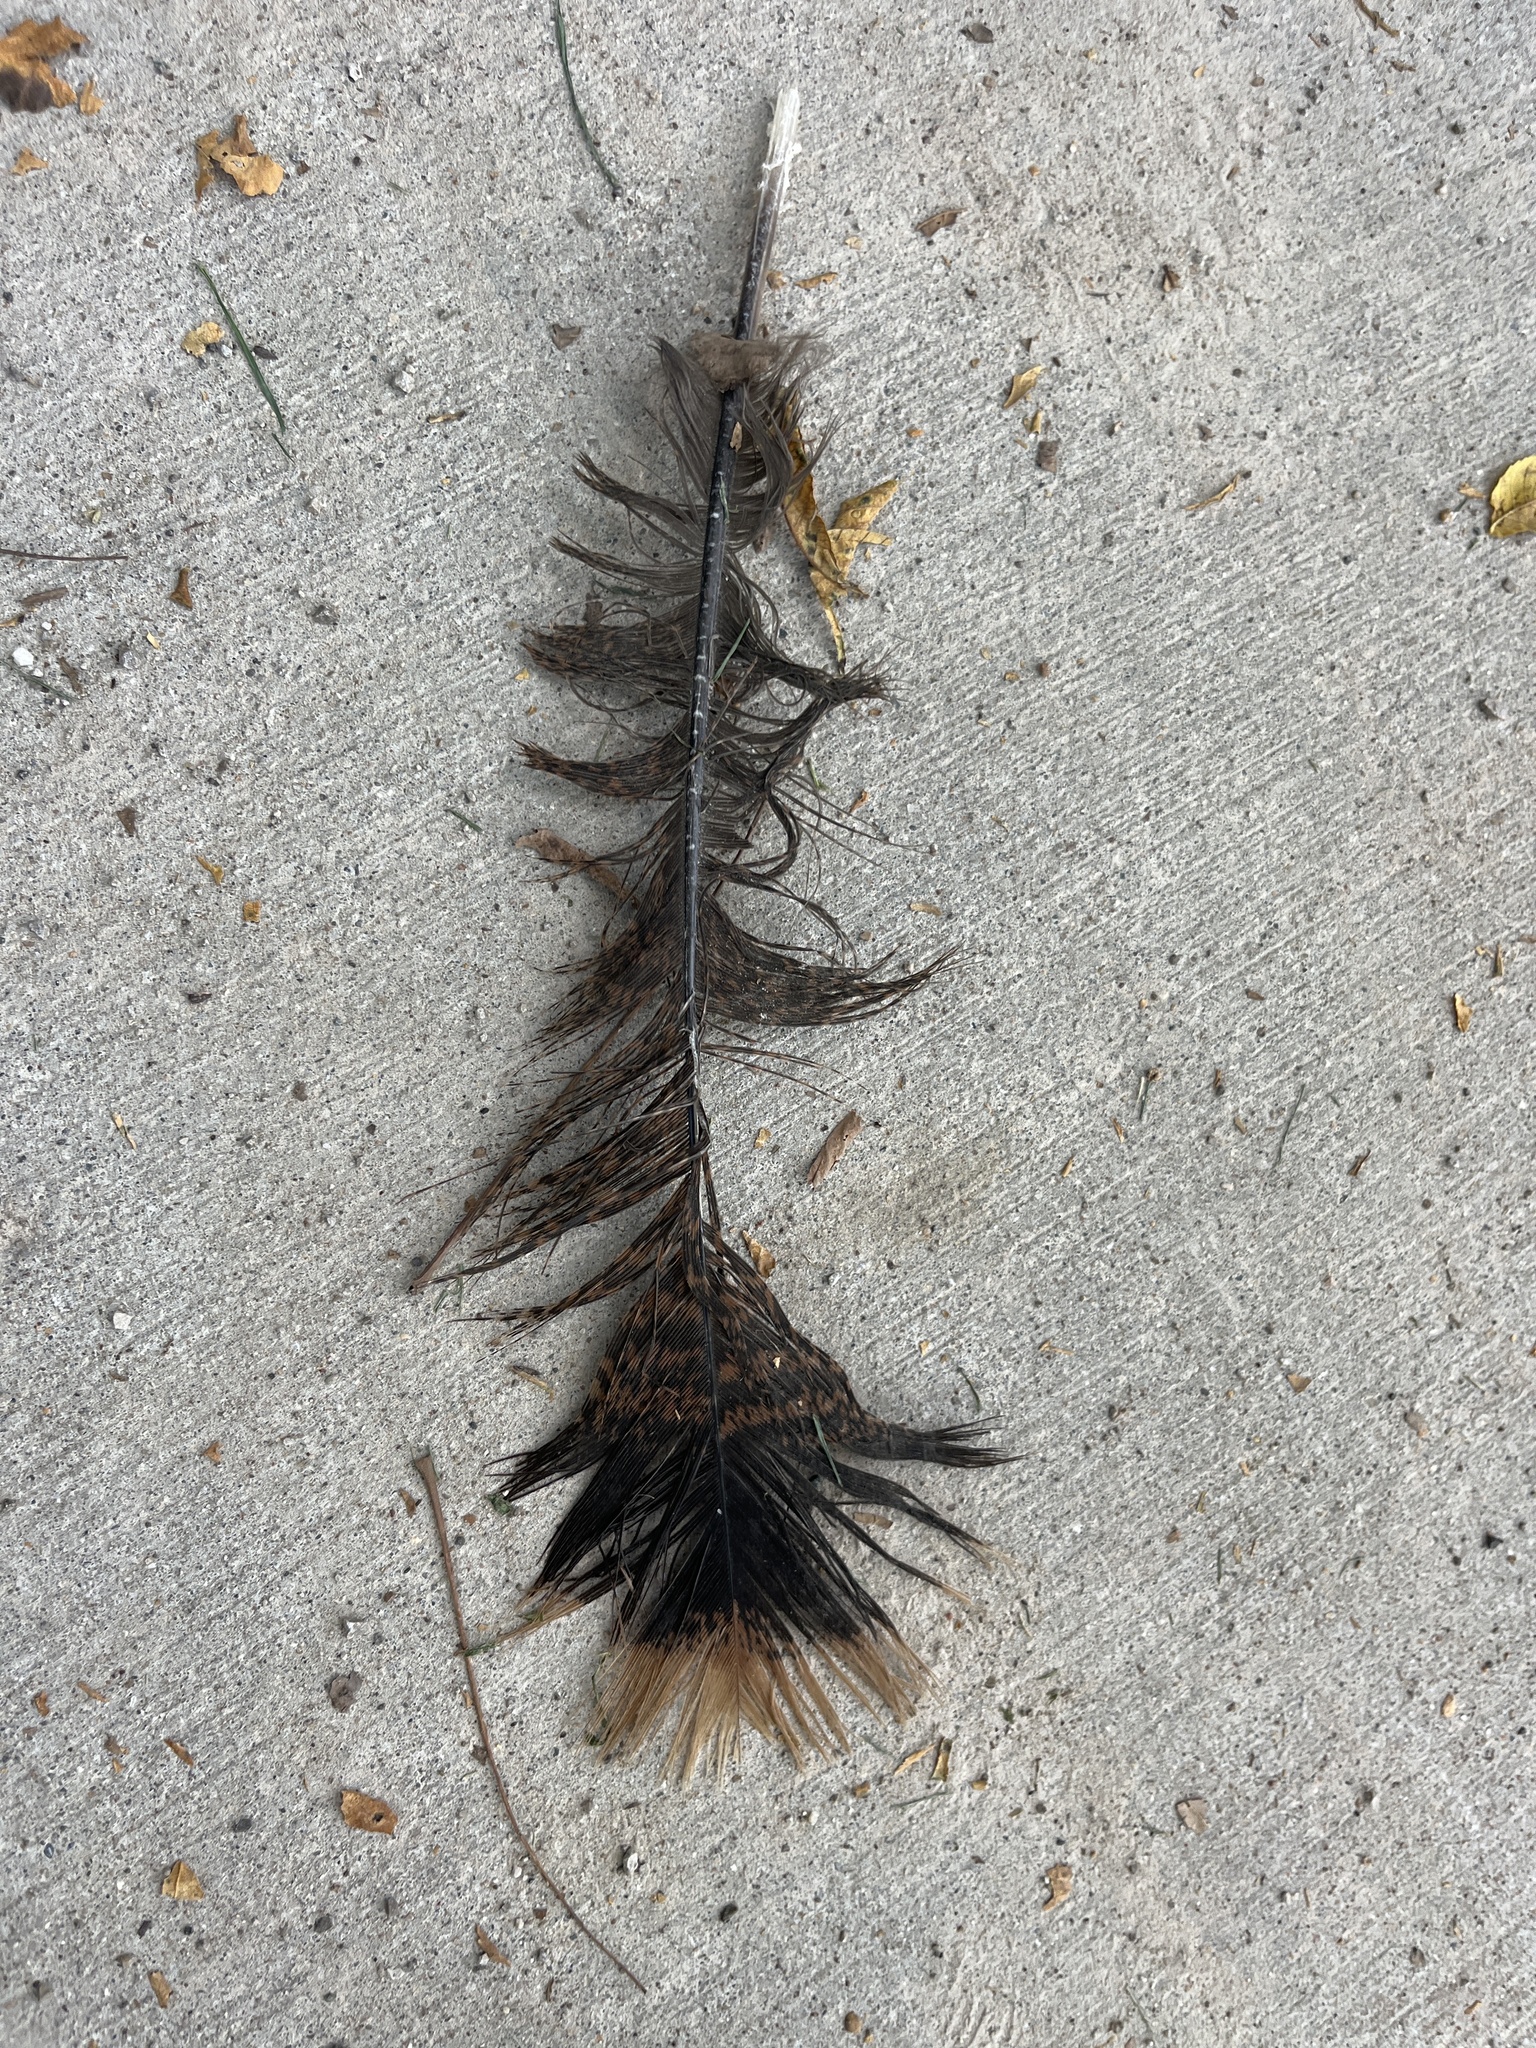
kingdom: Animalia
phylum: Chordata
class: Aves
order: Galliformes
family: Phasianidae
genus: Meleagris
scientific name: Meleagris gallopavo
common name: Wild turkey
